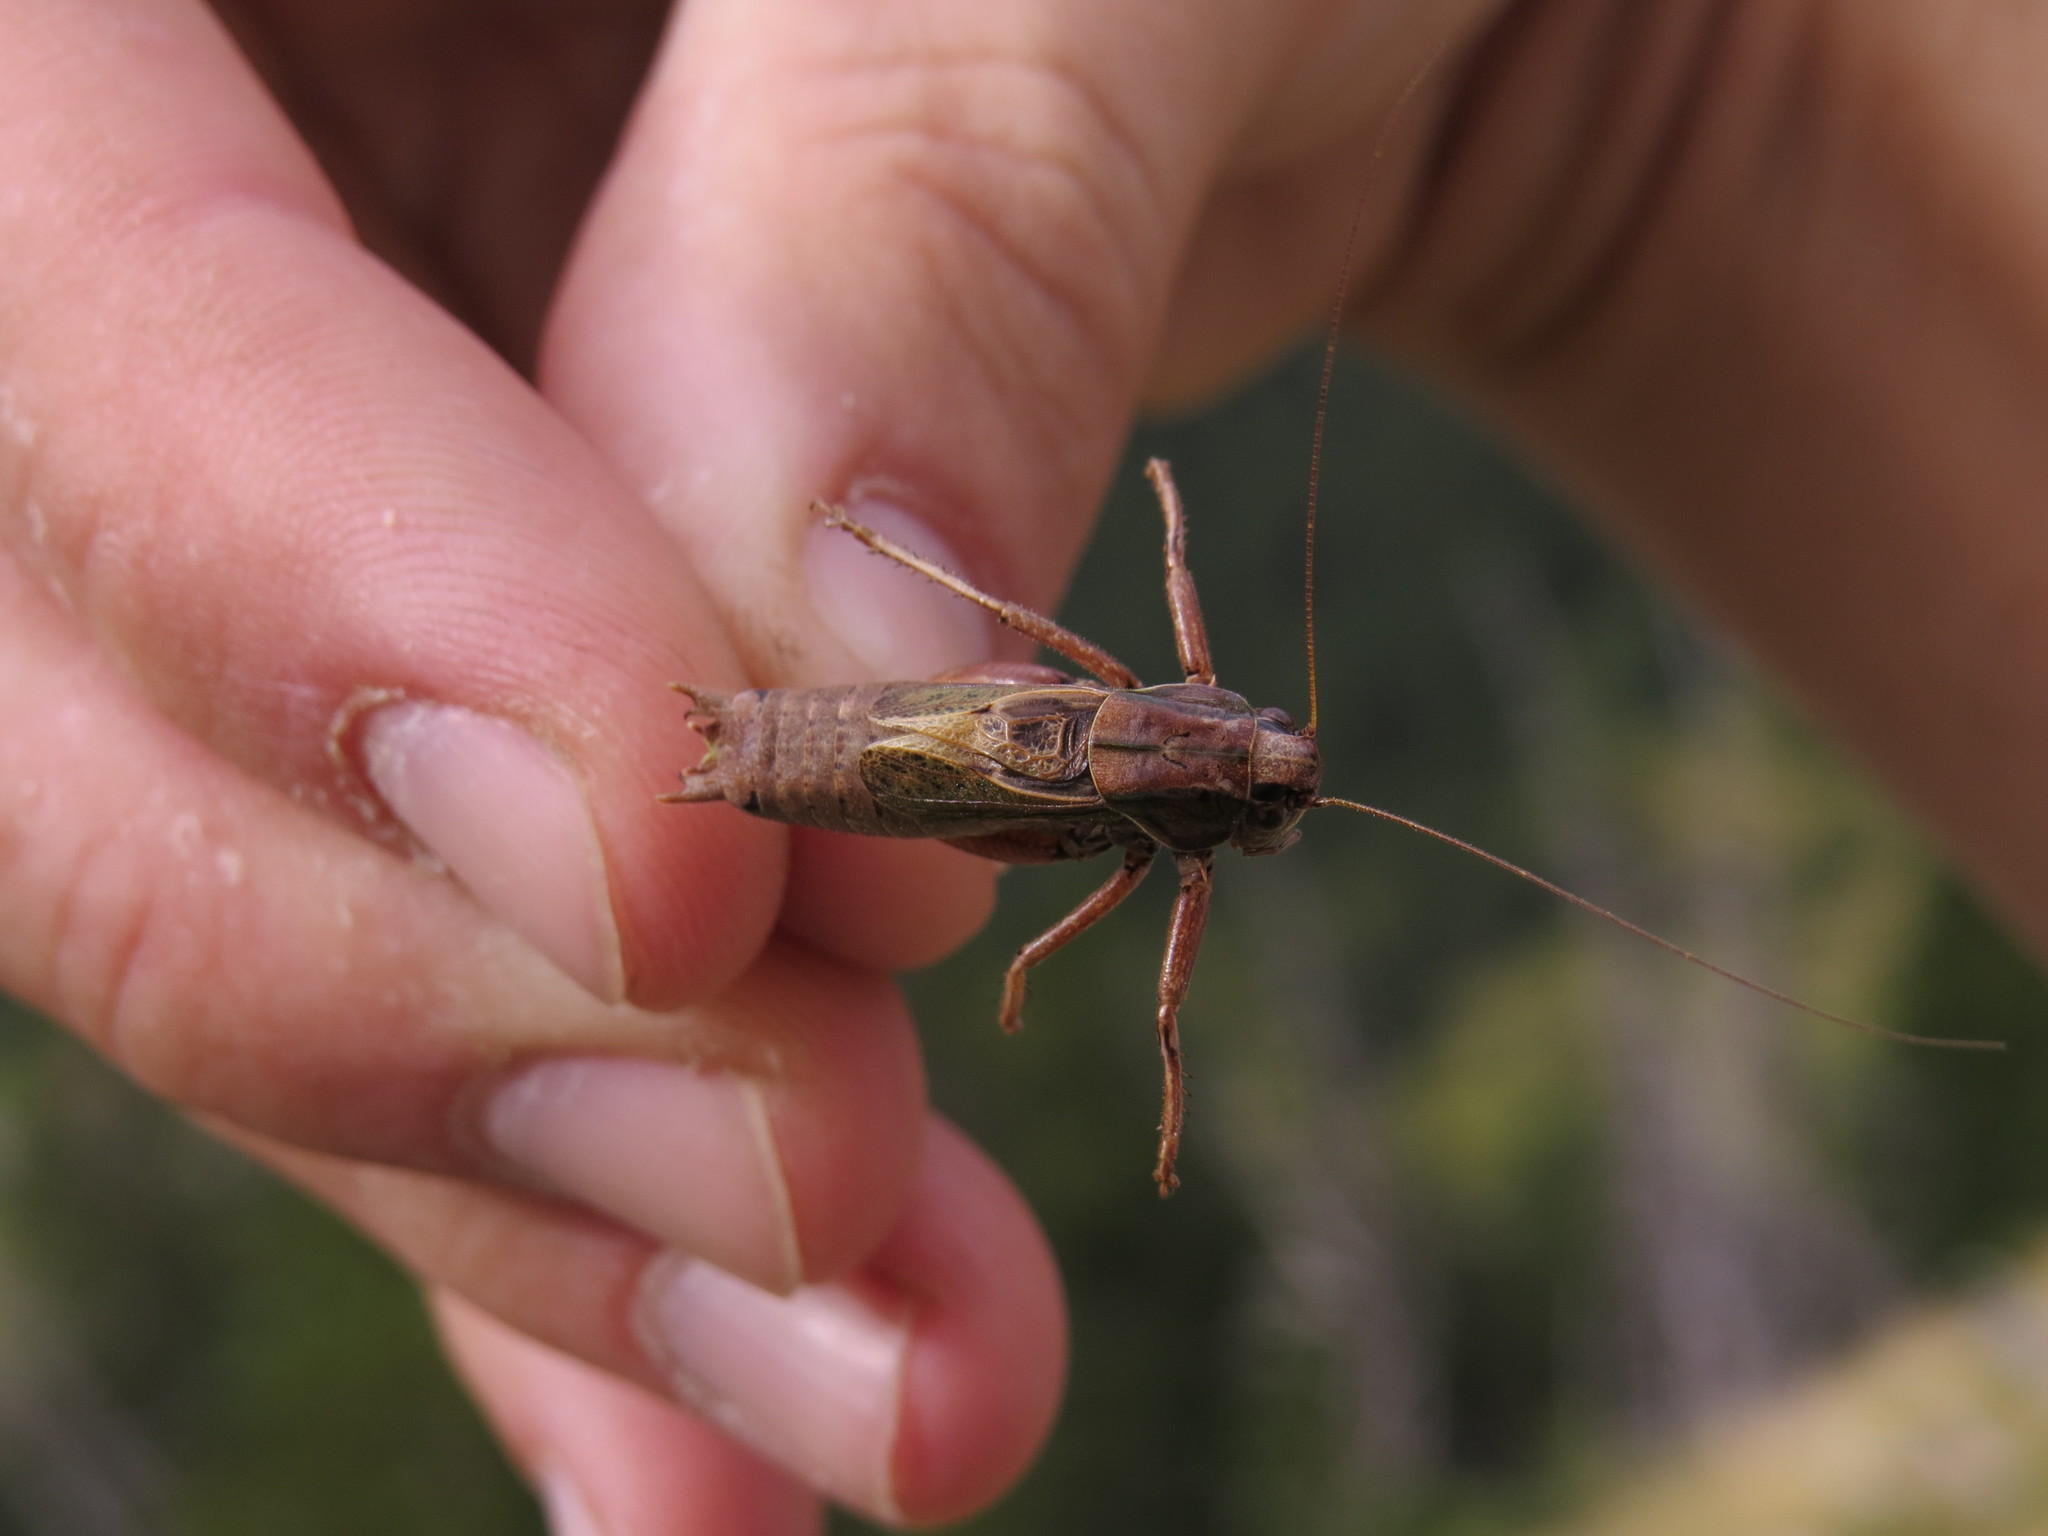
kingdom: Animalia
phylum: Arthropoda
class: Insecta
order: Orthoptera
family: Tettigoniidae
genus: Metrioptera
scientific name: Metrioptera saussuriana
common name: Purple meadow bush-cricket
